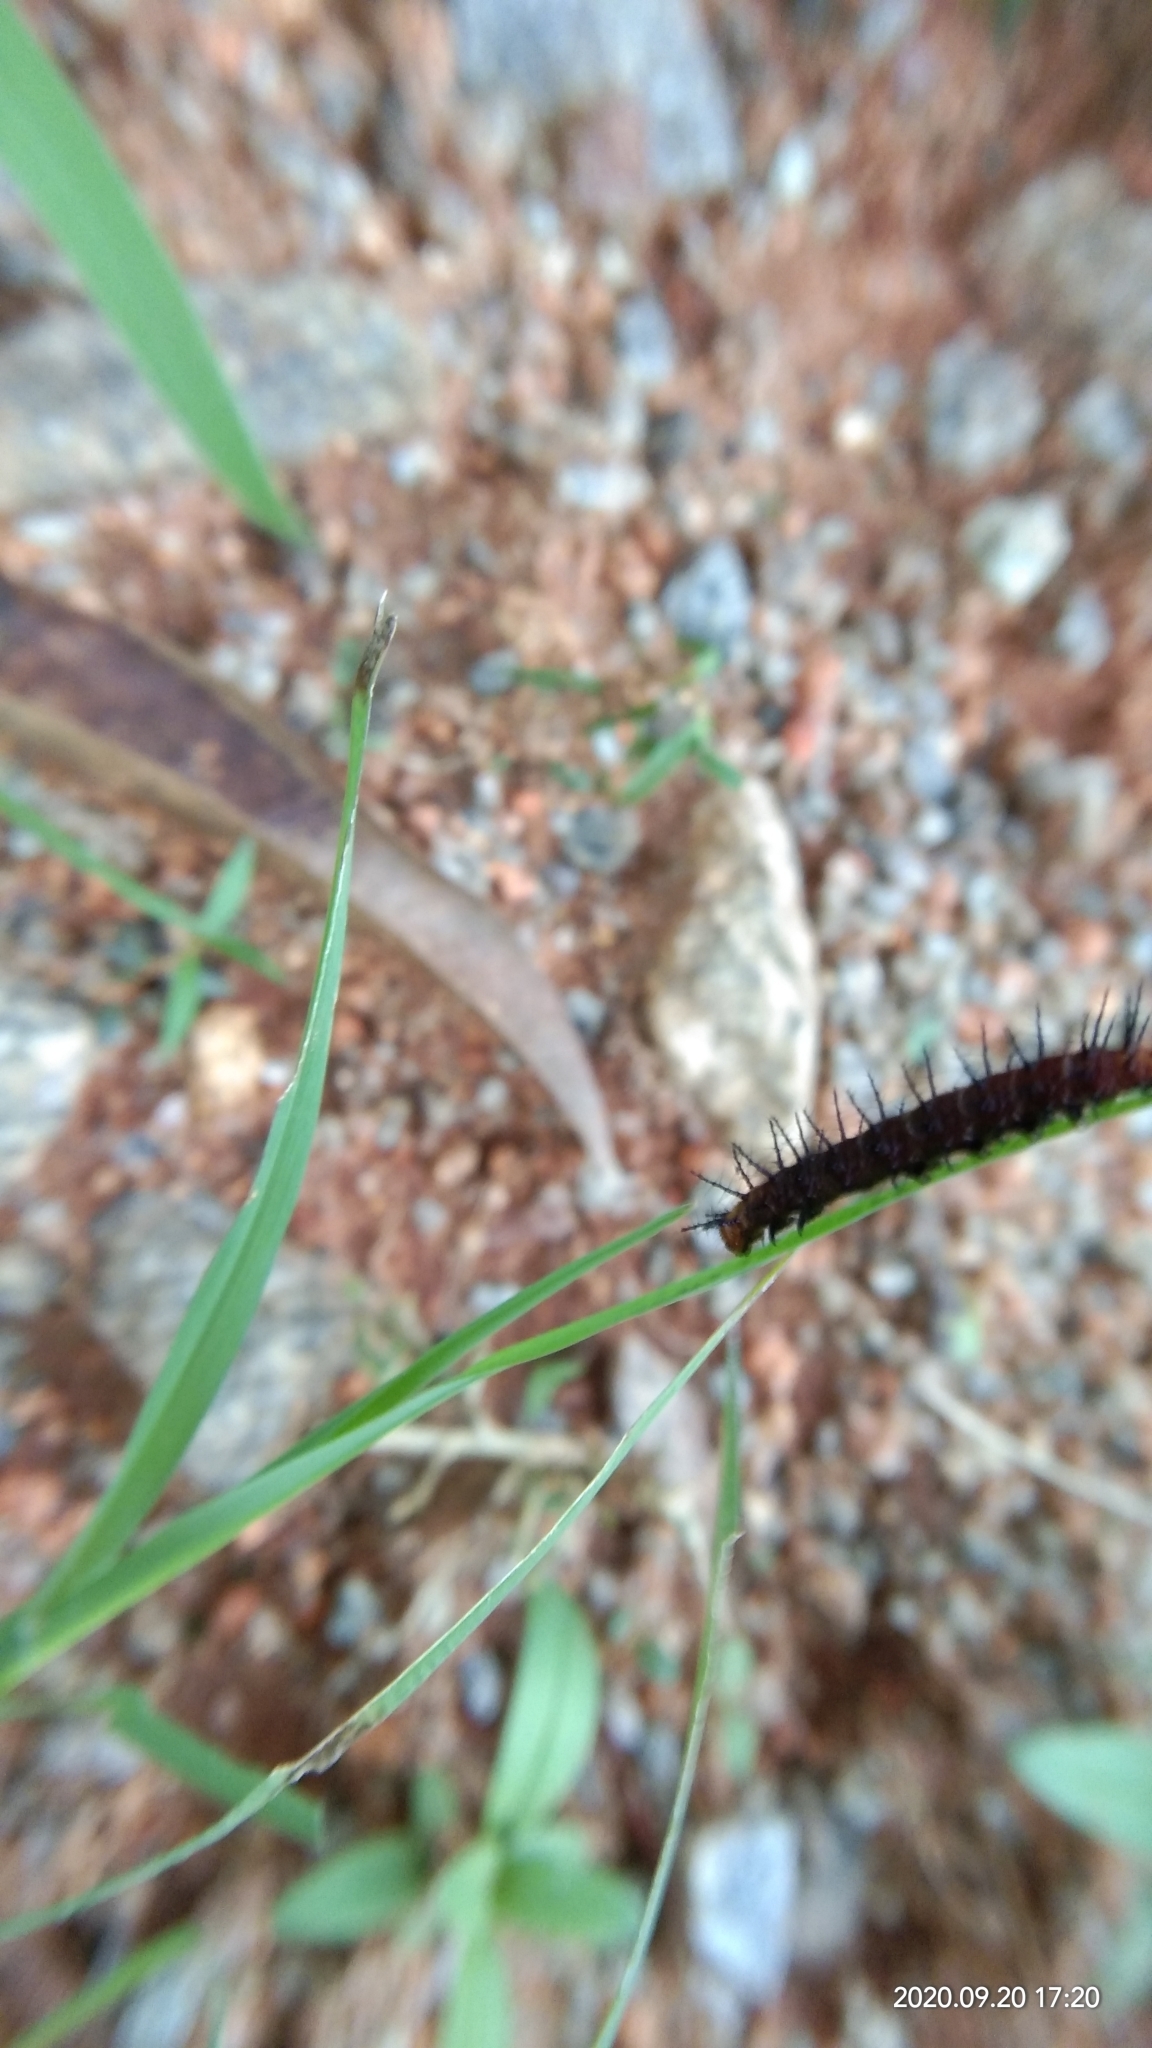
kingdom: Animalia
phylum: Arthropoda
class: Insecta
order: Lepidoptera
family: Nymphalidae
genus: Acraea
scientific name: Acraea terpsicore
